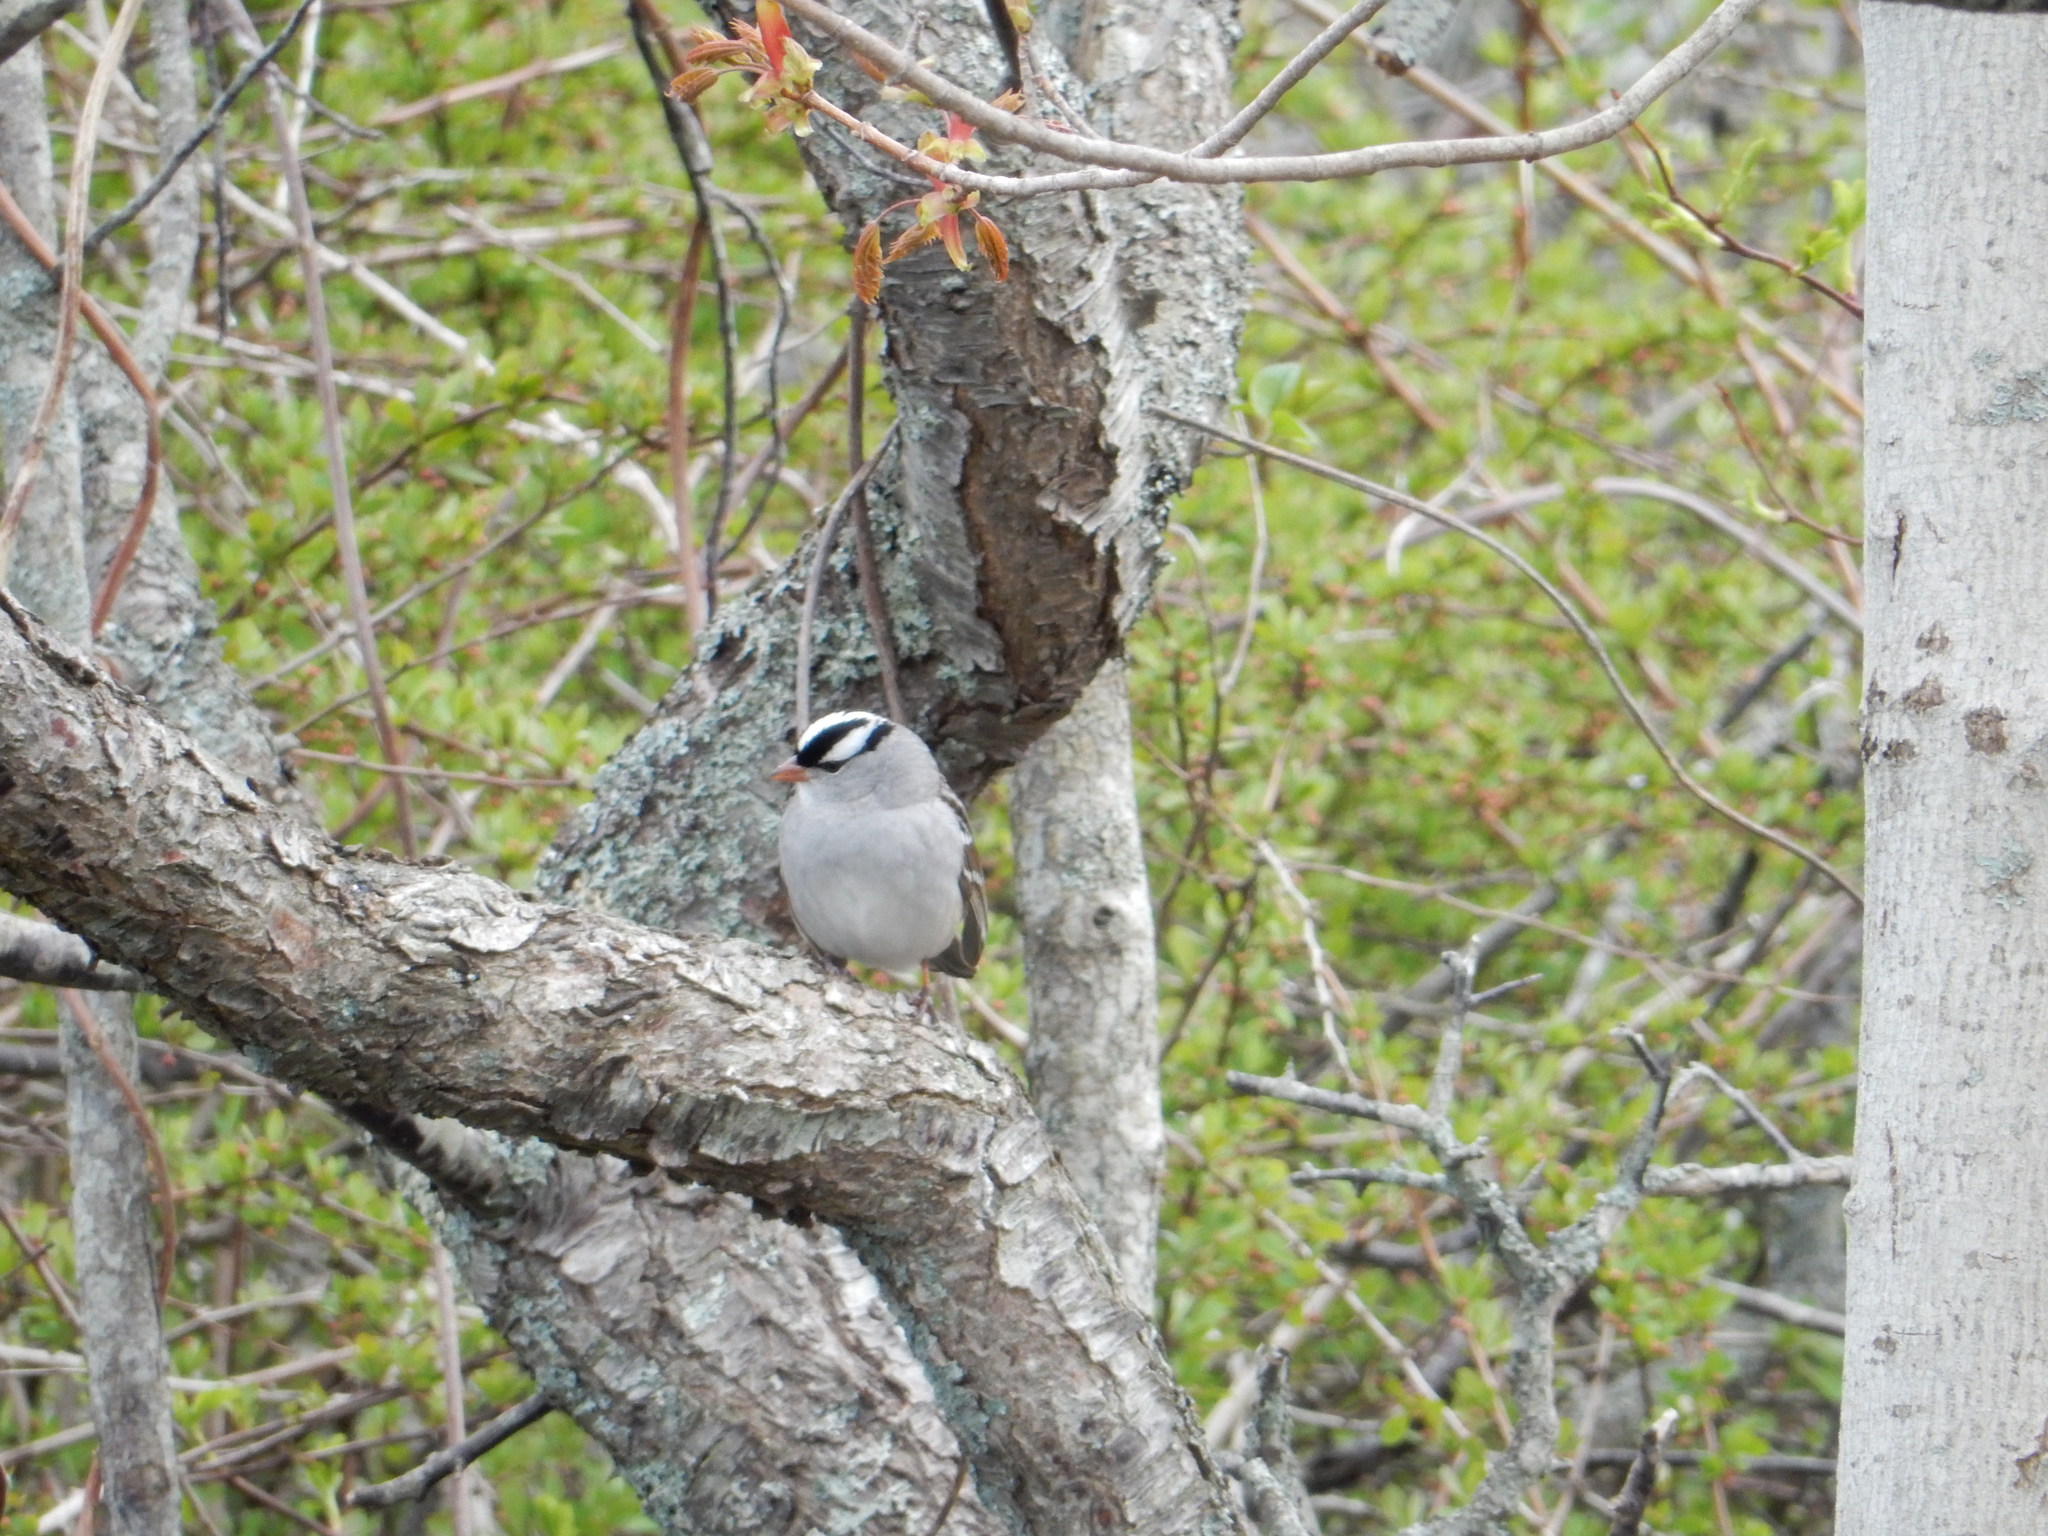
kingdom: Animalia
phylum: Chordata
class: Aves
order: Passeriformes
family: Passerellidae
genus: Zonotrichia
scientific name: Zonotrichia leucophrys
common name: White-crowned sparrow
